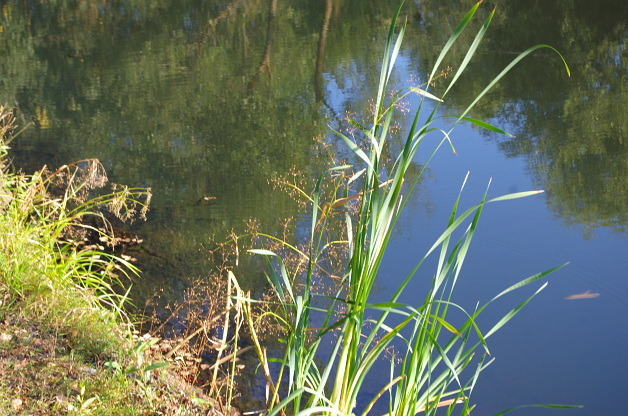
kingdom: Plantae
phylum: Tracheophyta
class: Liliopsida
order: Alismatales
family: Alismataceae
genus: Alisma
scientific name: Alisma plantago-aquatica
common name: Water-plantain
